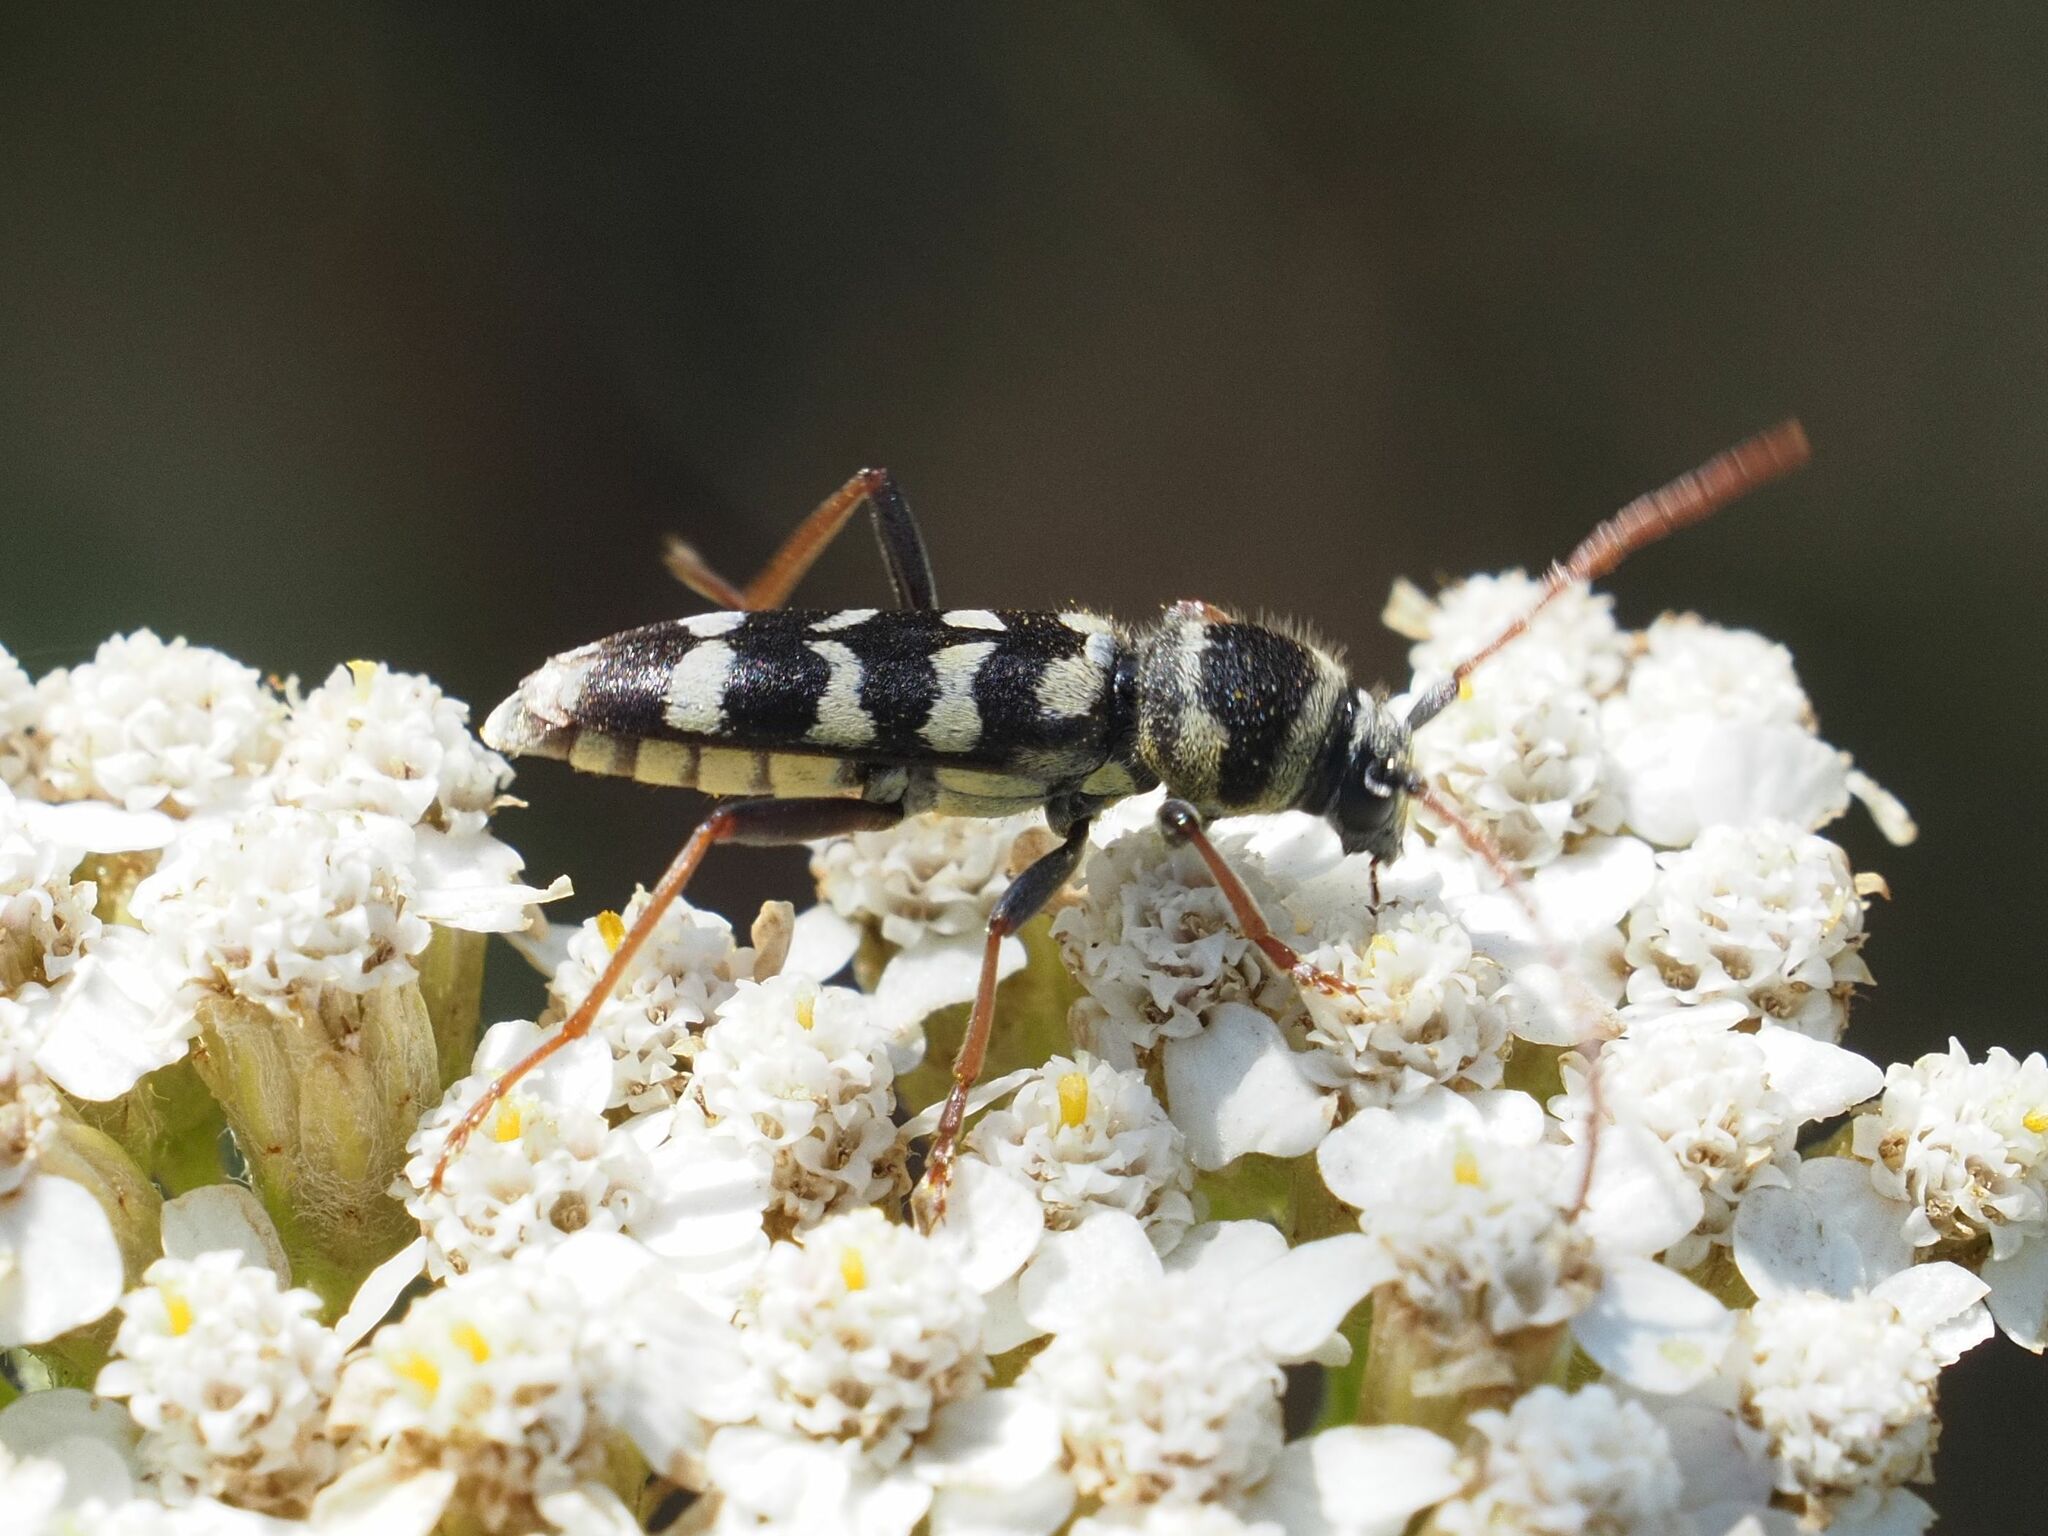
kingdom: Animalia
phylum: Arthropoda
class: Insecta
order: Coleoptera
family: Cerambycidae
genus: Plagionotus
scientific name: Plagionotus floralis
